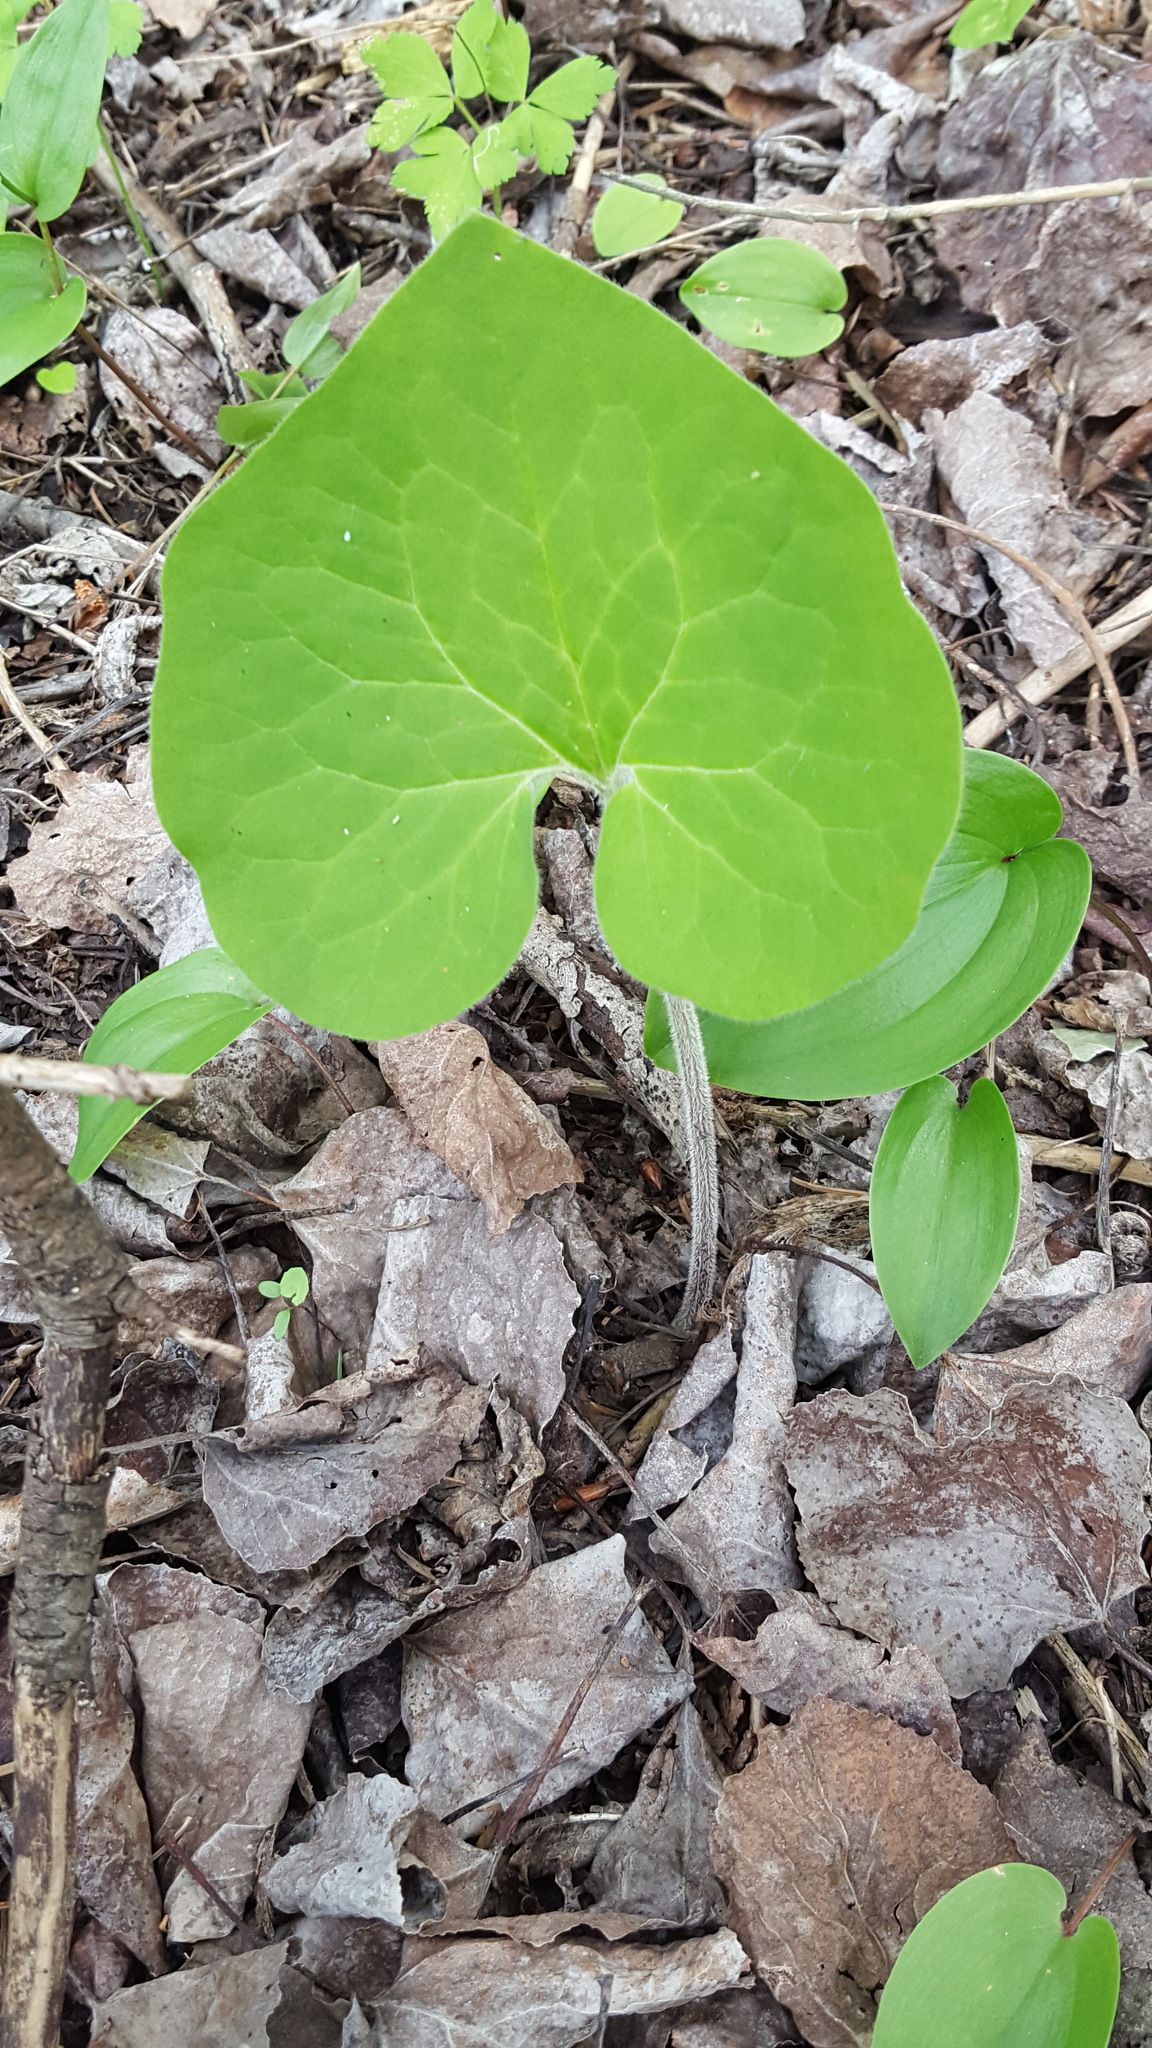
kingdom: Plantae
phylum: Tracheophyta
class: Magnoliopsida
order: Piperales
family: Aristolochiaceae
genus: Asarum
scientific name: Asarum canadense
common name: Wild ginger
